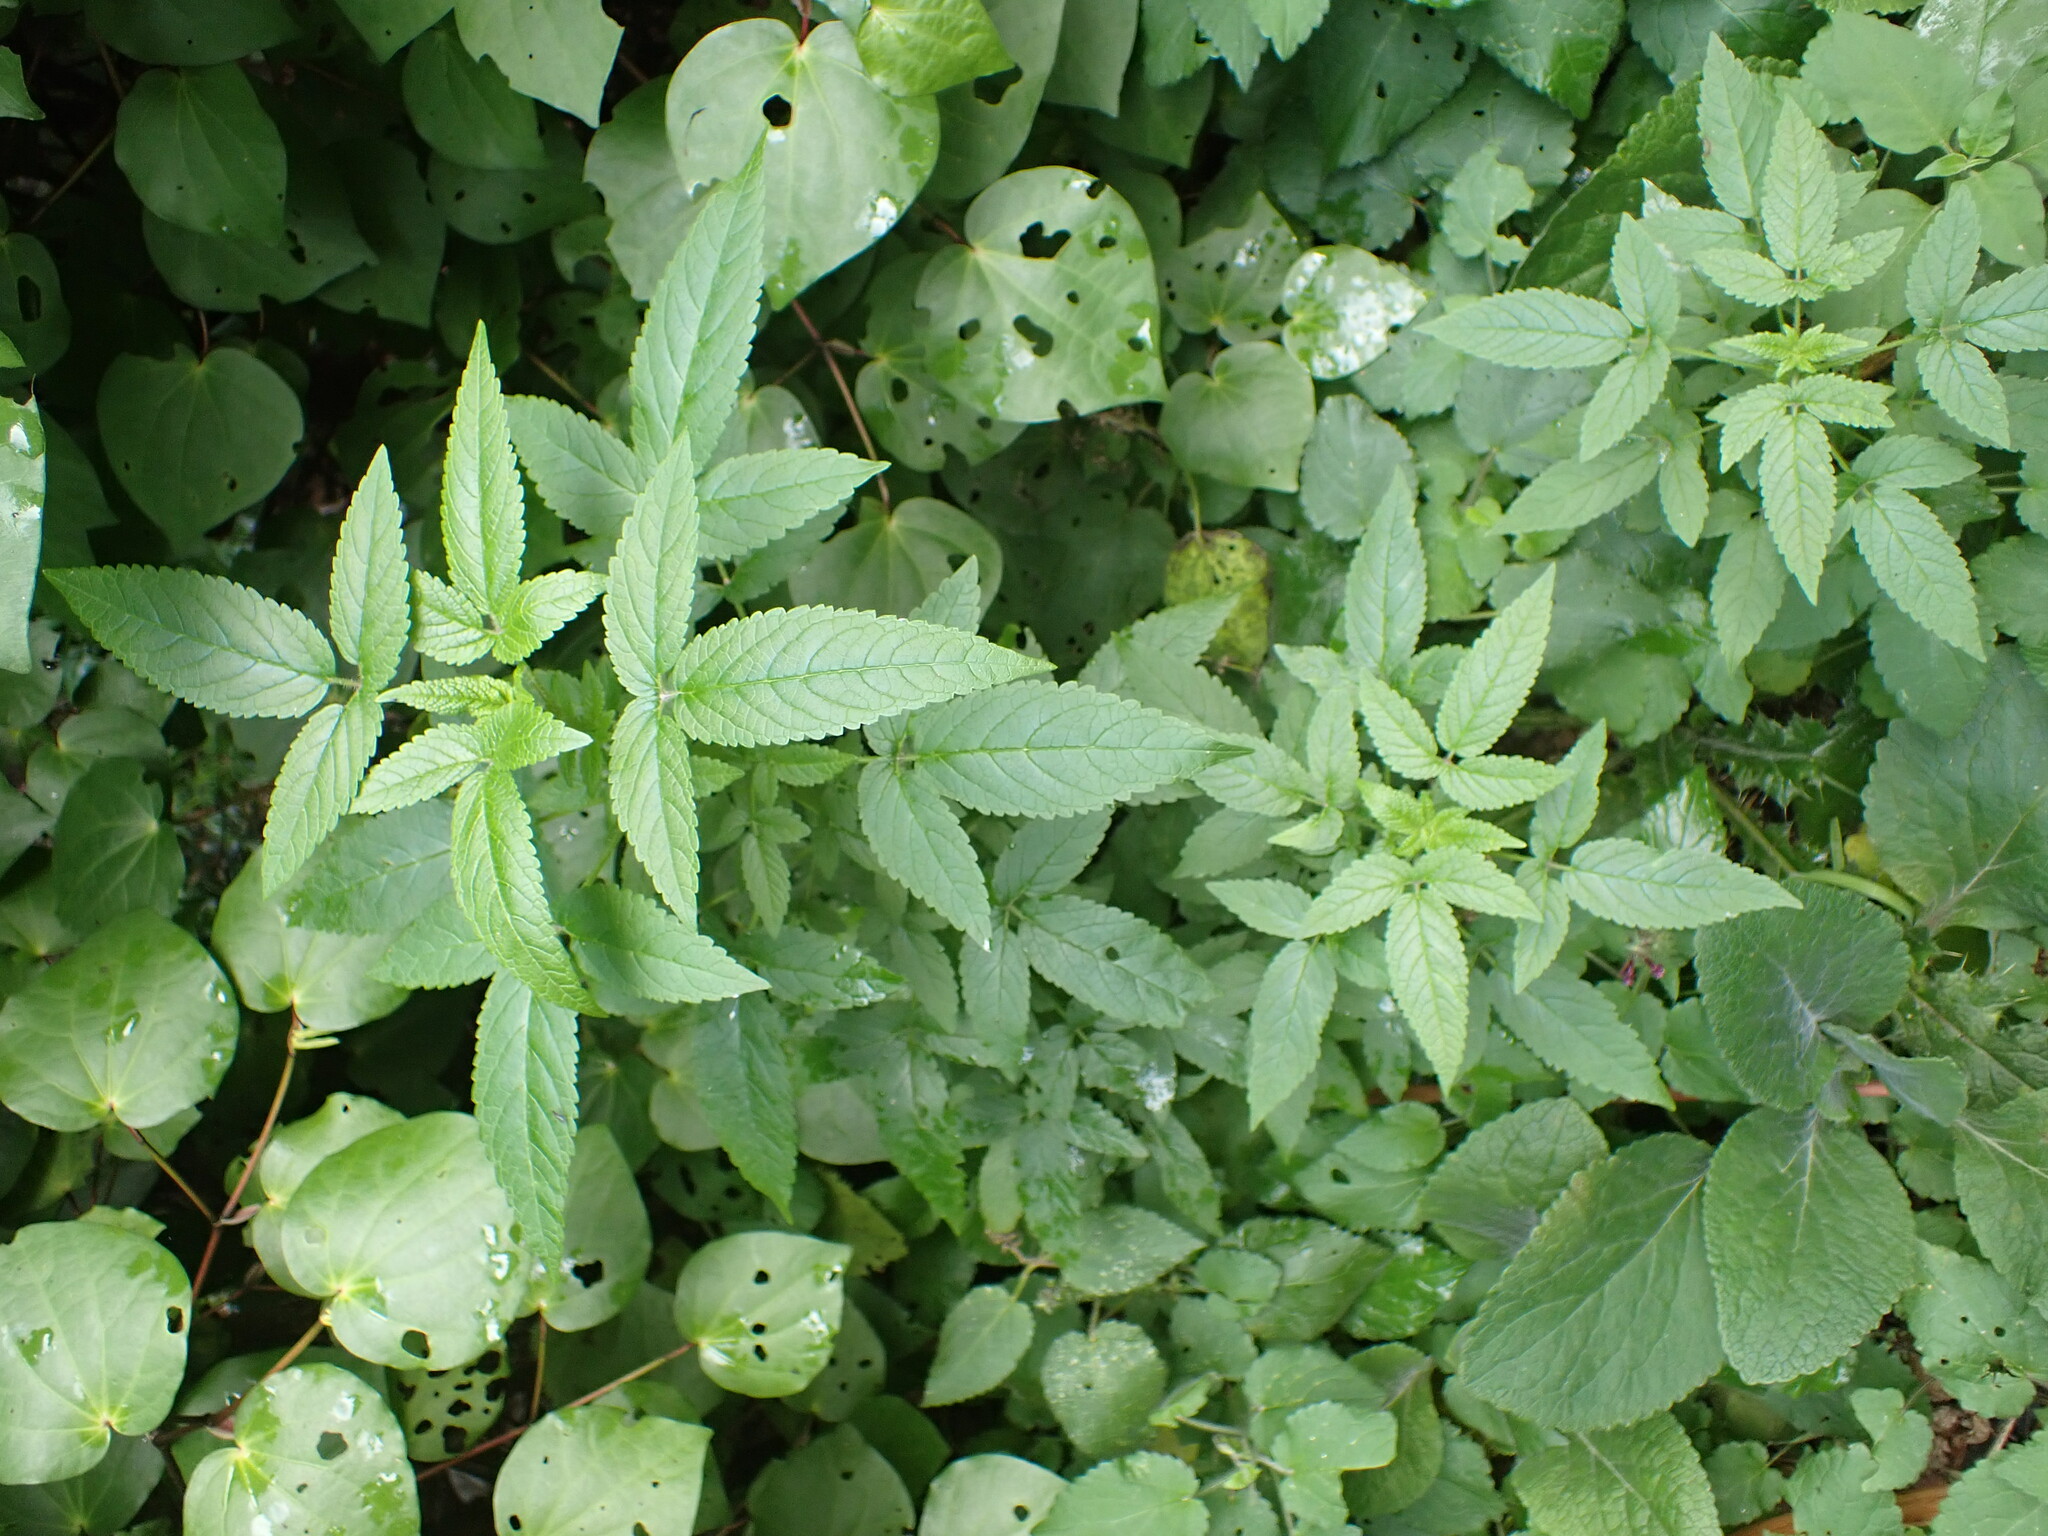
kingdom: Plantae
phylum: Tracheophyta
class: Magnoliopsida
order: Lamiales
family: Lamiaceae
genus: Cedronella
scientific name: Cedronella canariensis
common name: Canary islands balm
